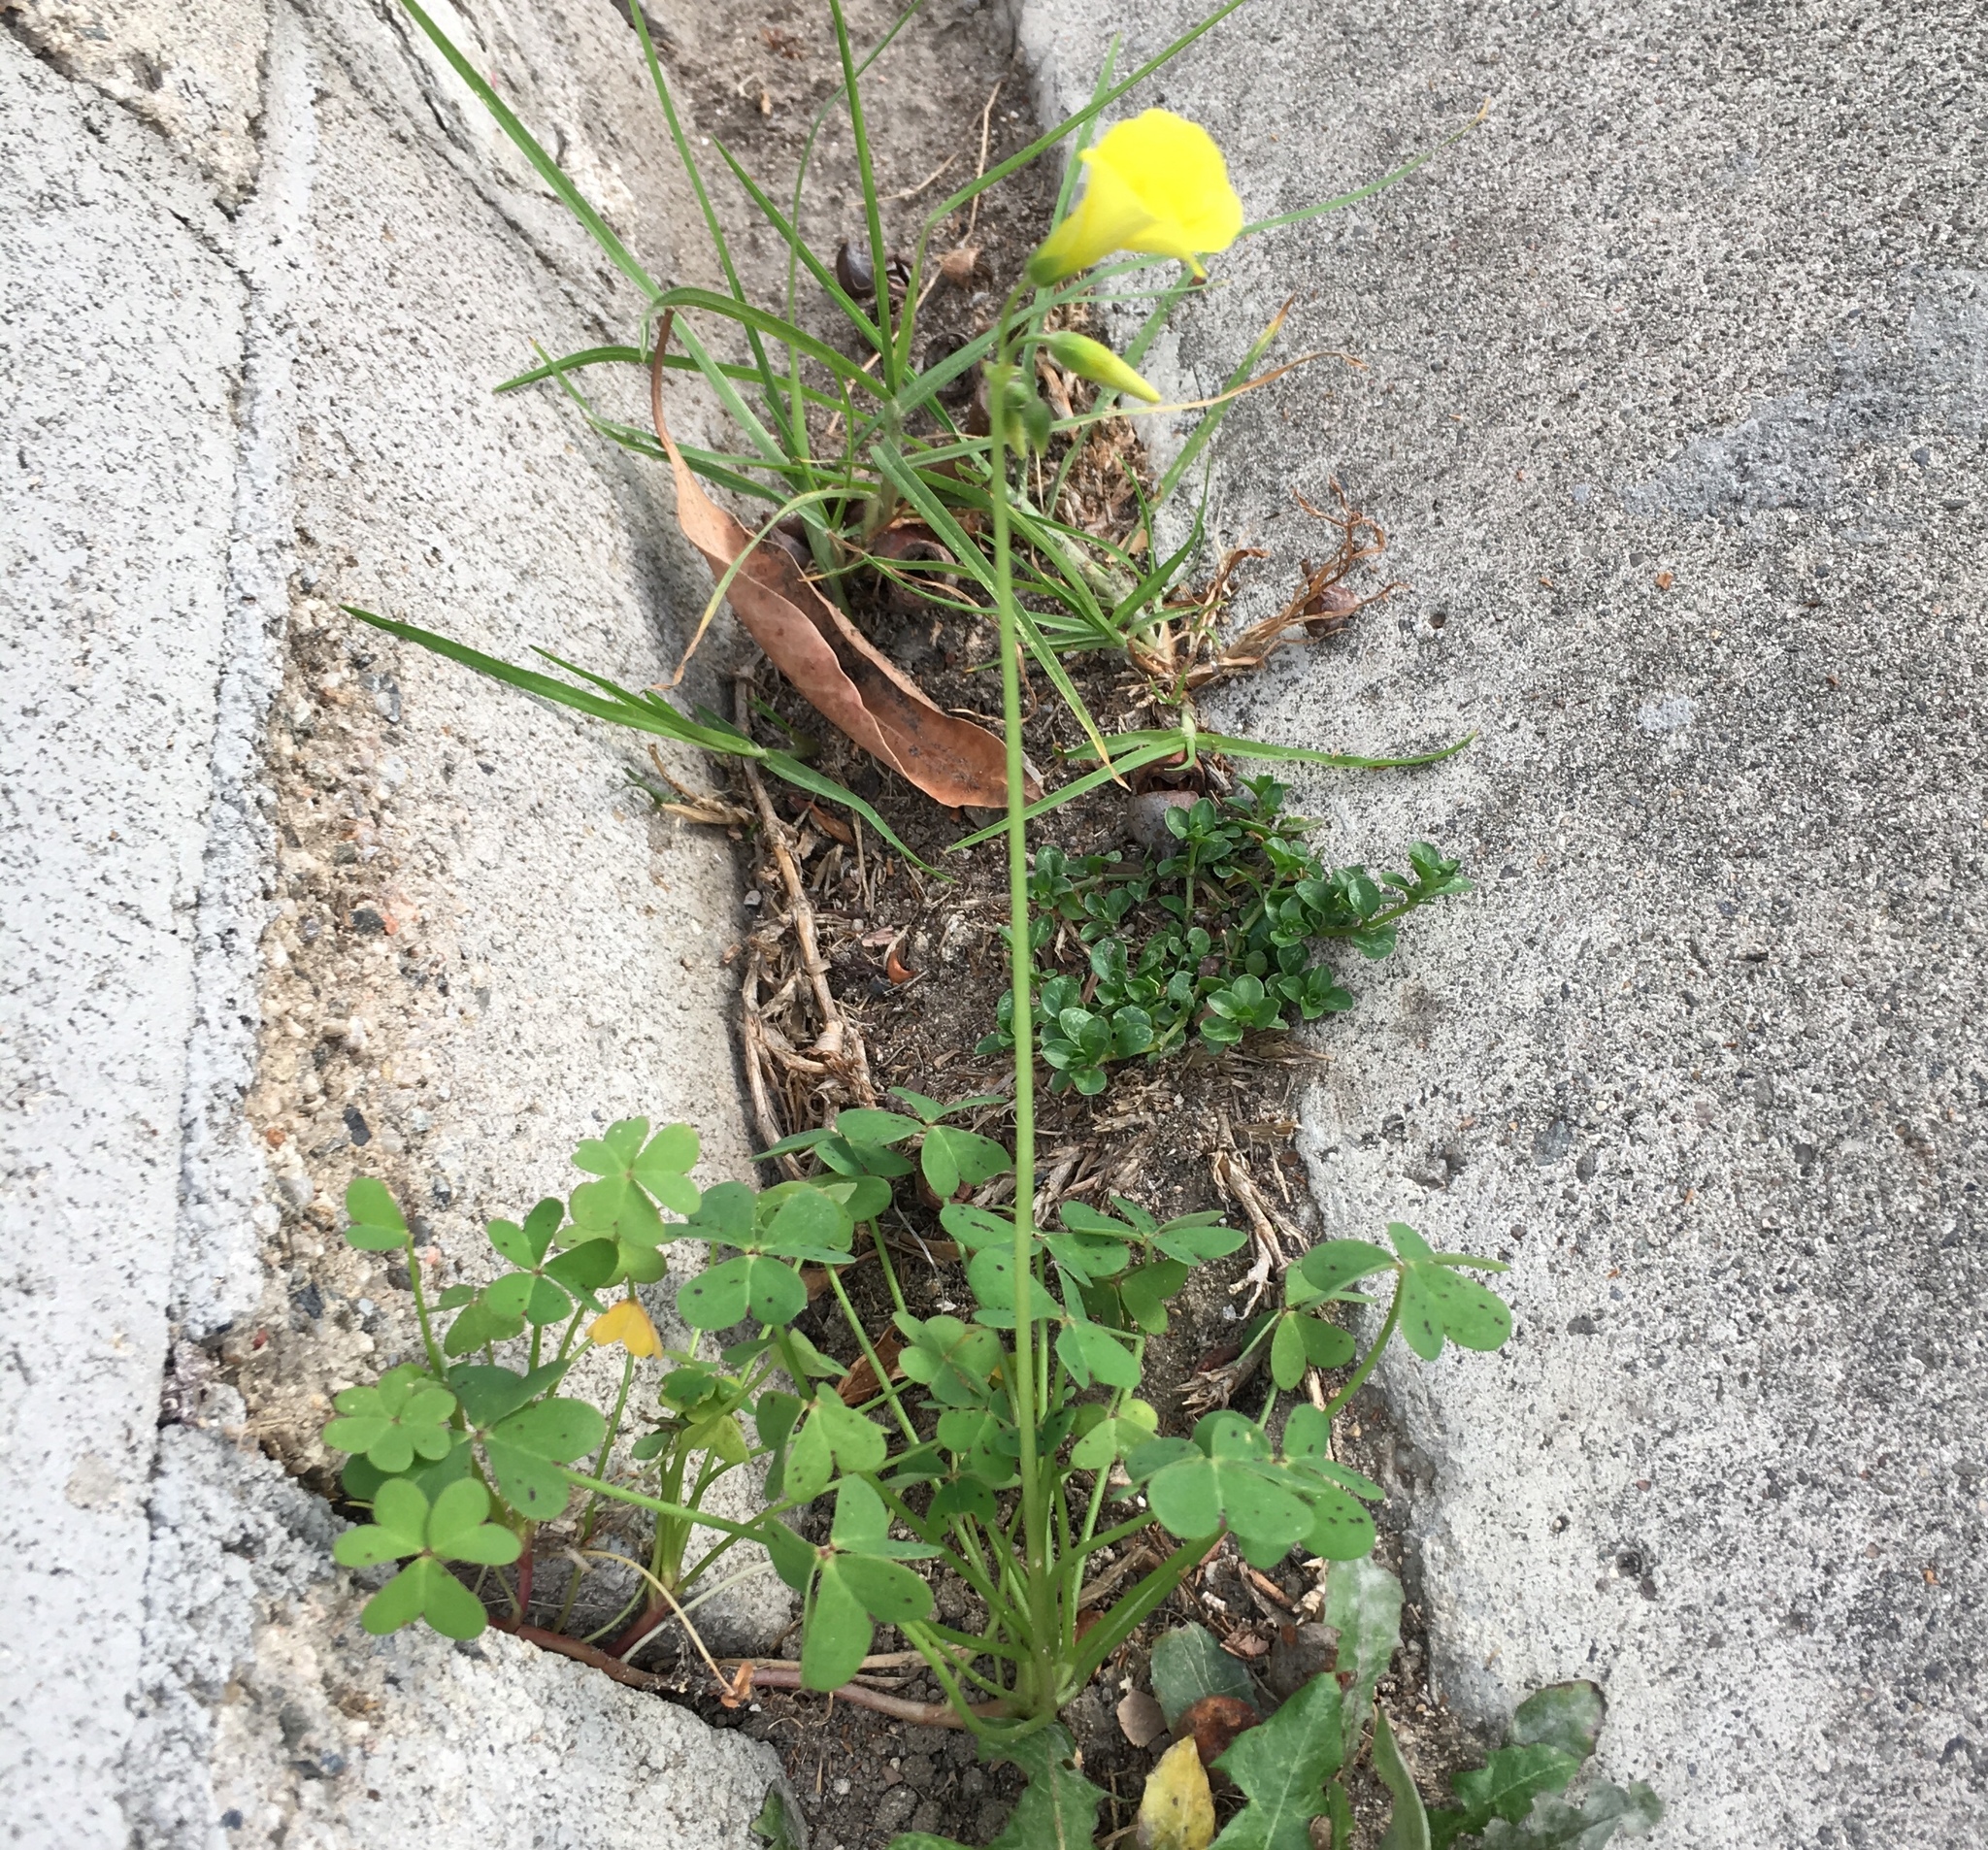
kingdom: Plantae
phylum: Tracheophyta
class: Magnoliopsida
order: Oxalidales
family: Oxalidaceae
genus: Oxalis
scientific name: Oxalis pes-caprae
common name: Bermuda-buttercup
